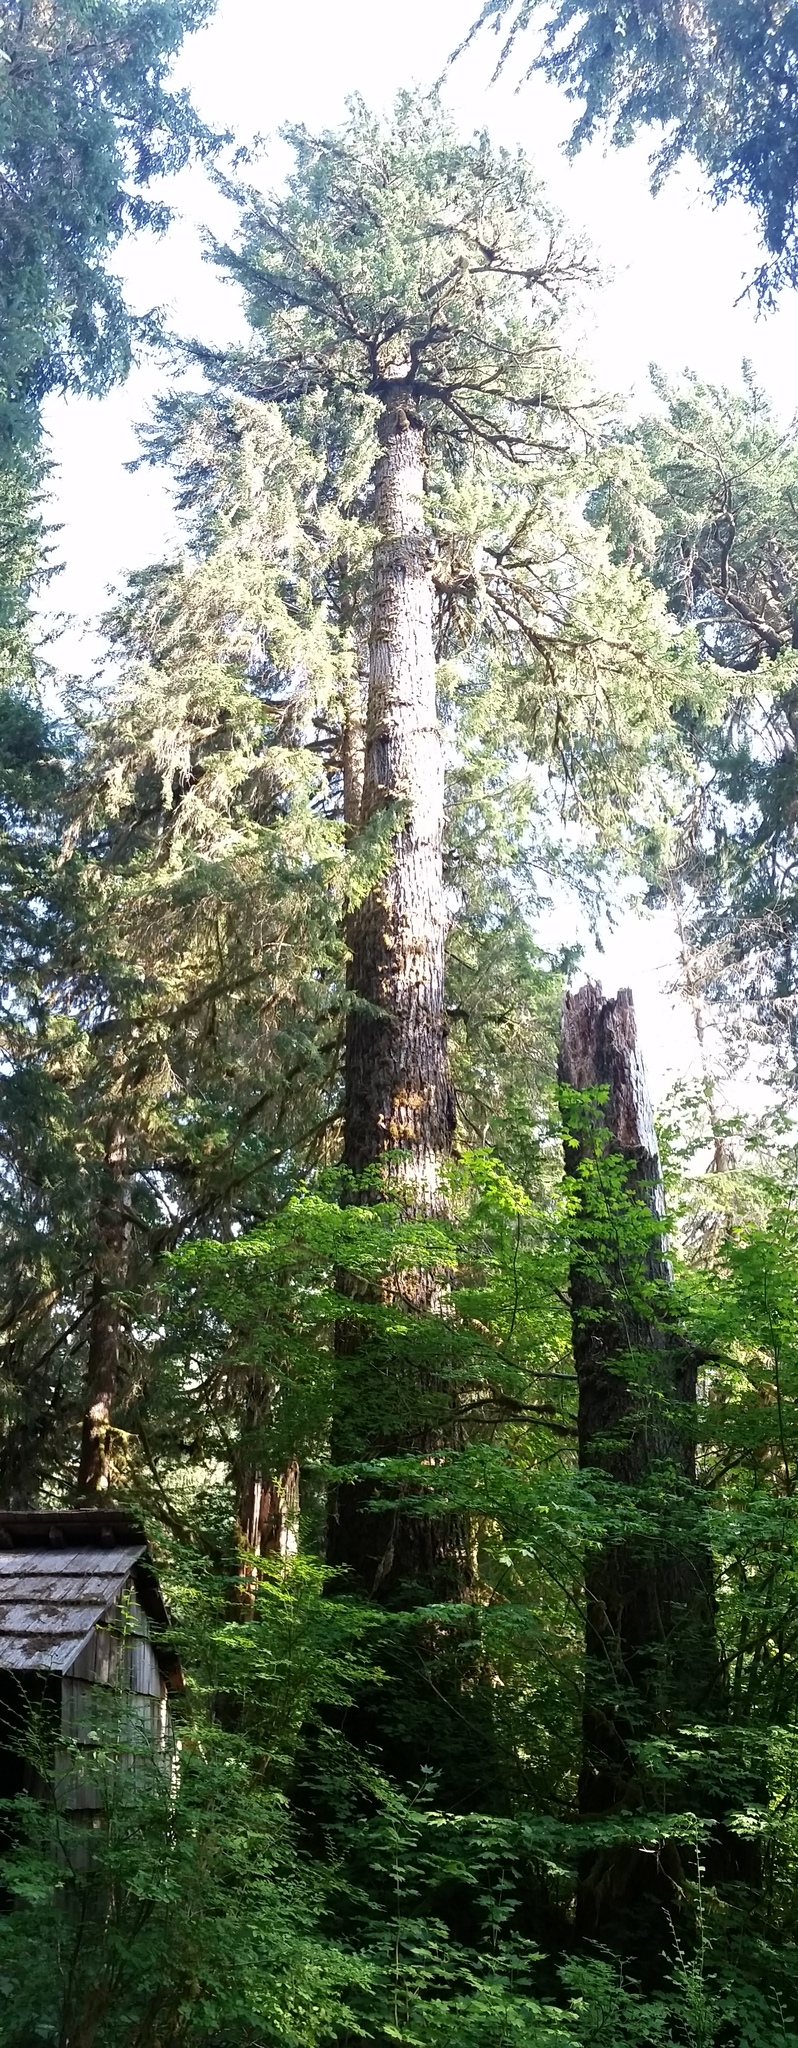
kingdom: Plantae
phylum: Tracheophyta
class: Pinopsida
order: Pinales
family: Pinaceae
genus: Pseudotsuga
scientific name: Pseudotsuga menziesii
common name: Douglas fir
